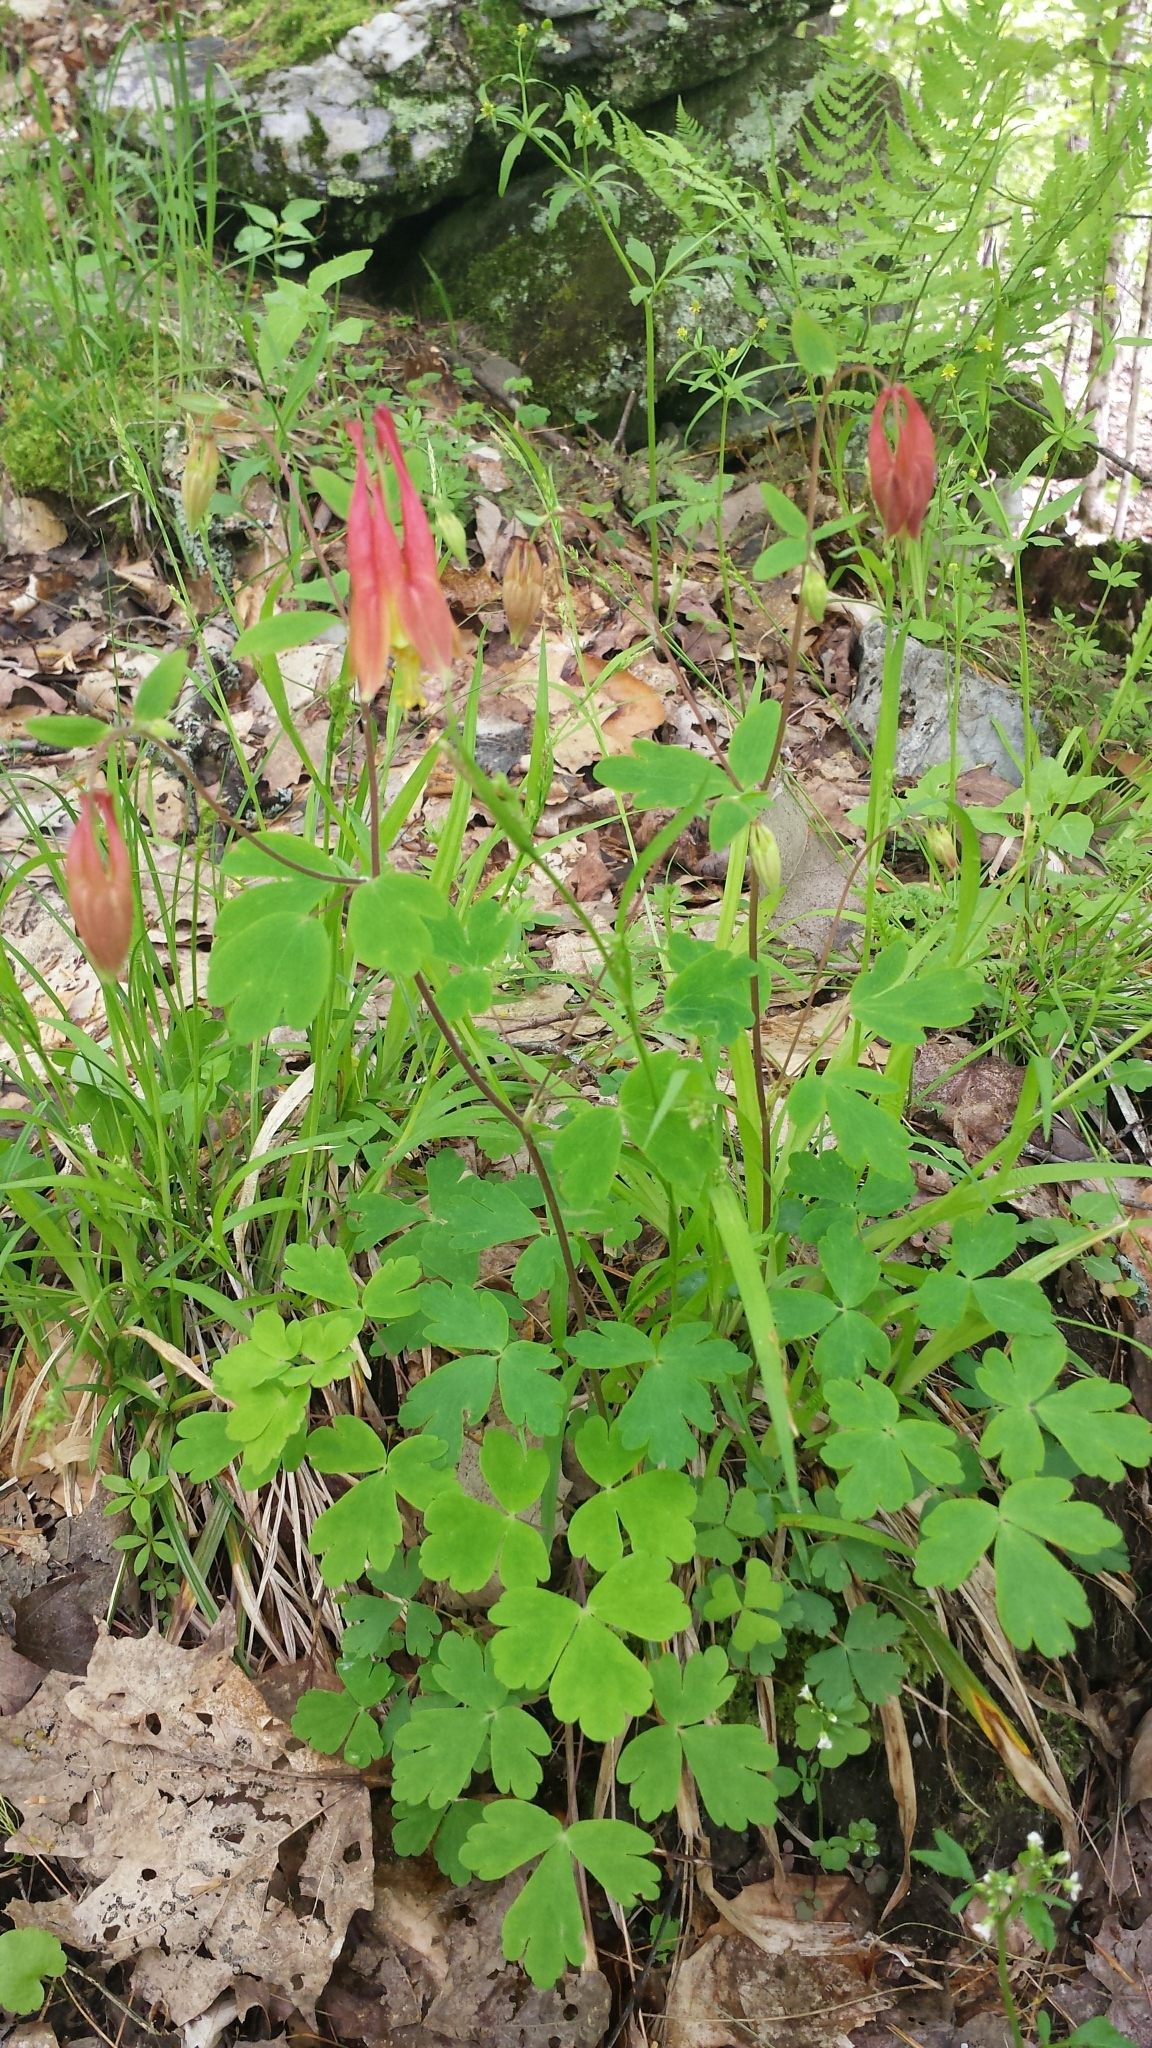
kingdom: Plantae
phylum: Tracheophyta
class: Magnoliopsida
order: Ranunculales
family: Ranunculaceae
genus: Aquilegia
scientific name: Aquilegia canadensis
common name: American columbine
